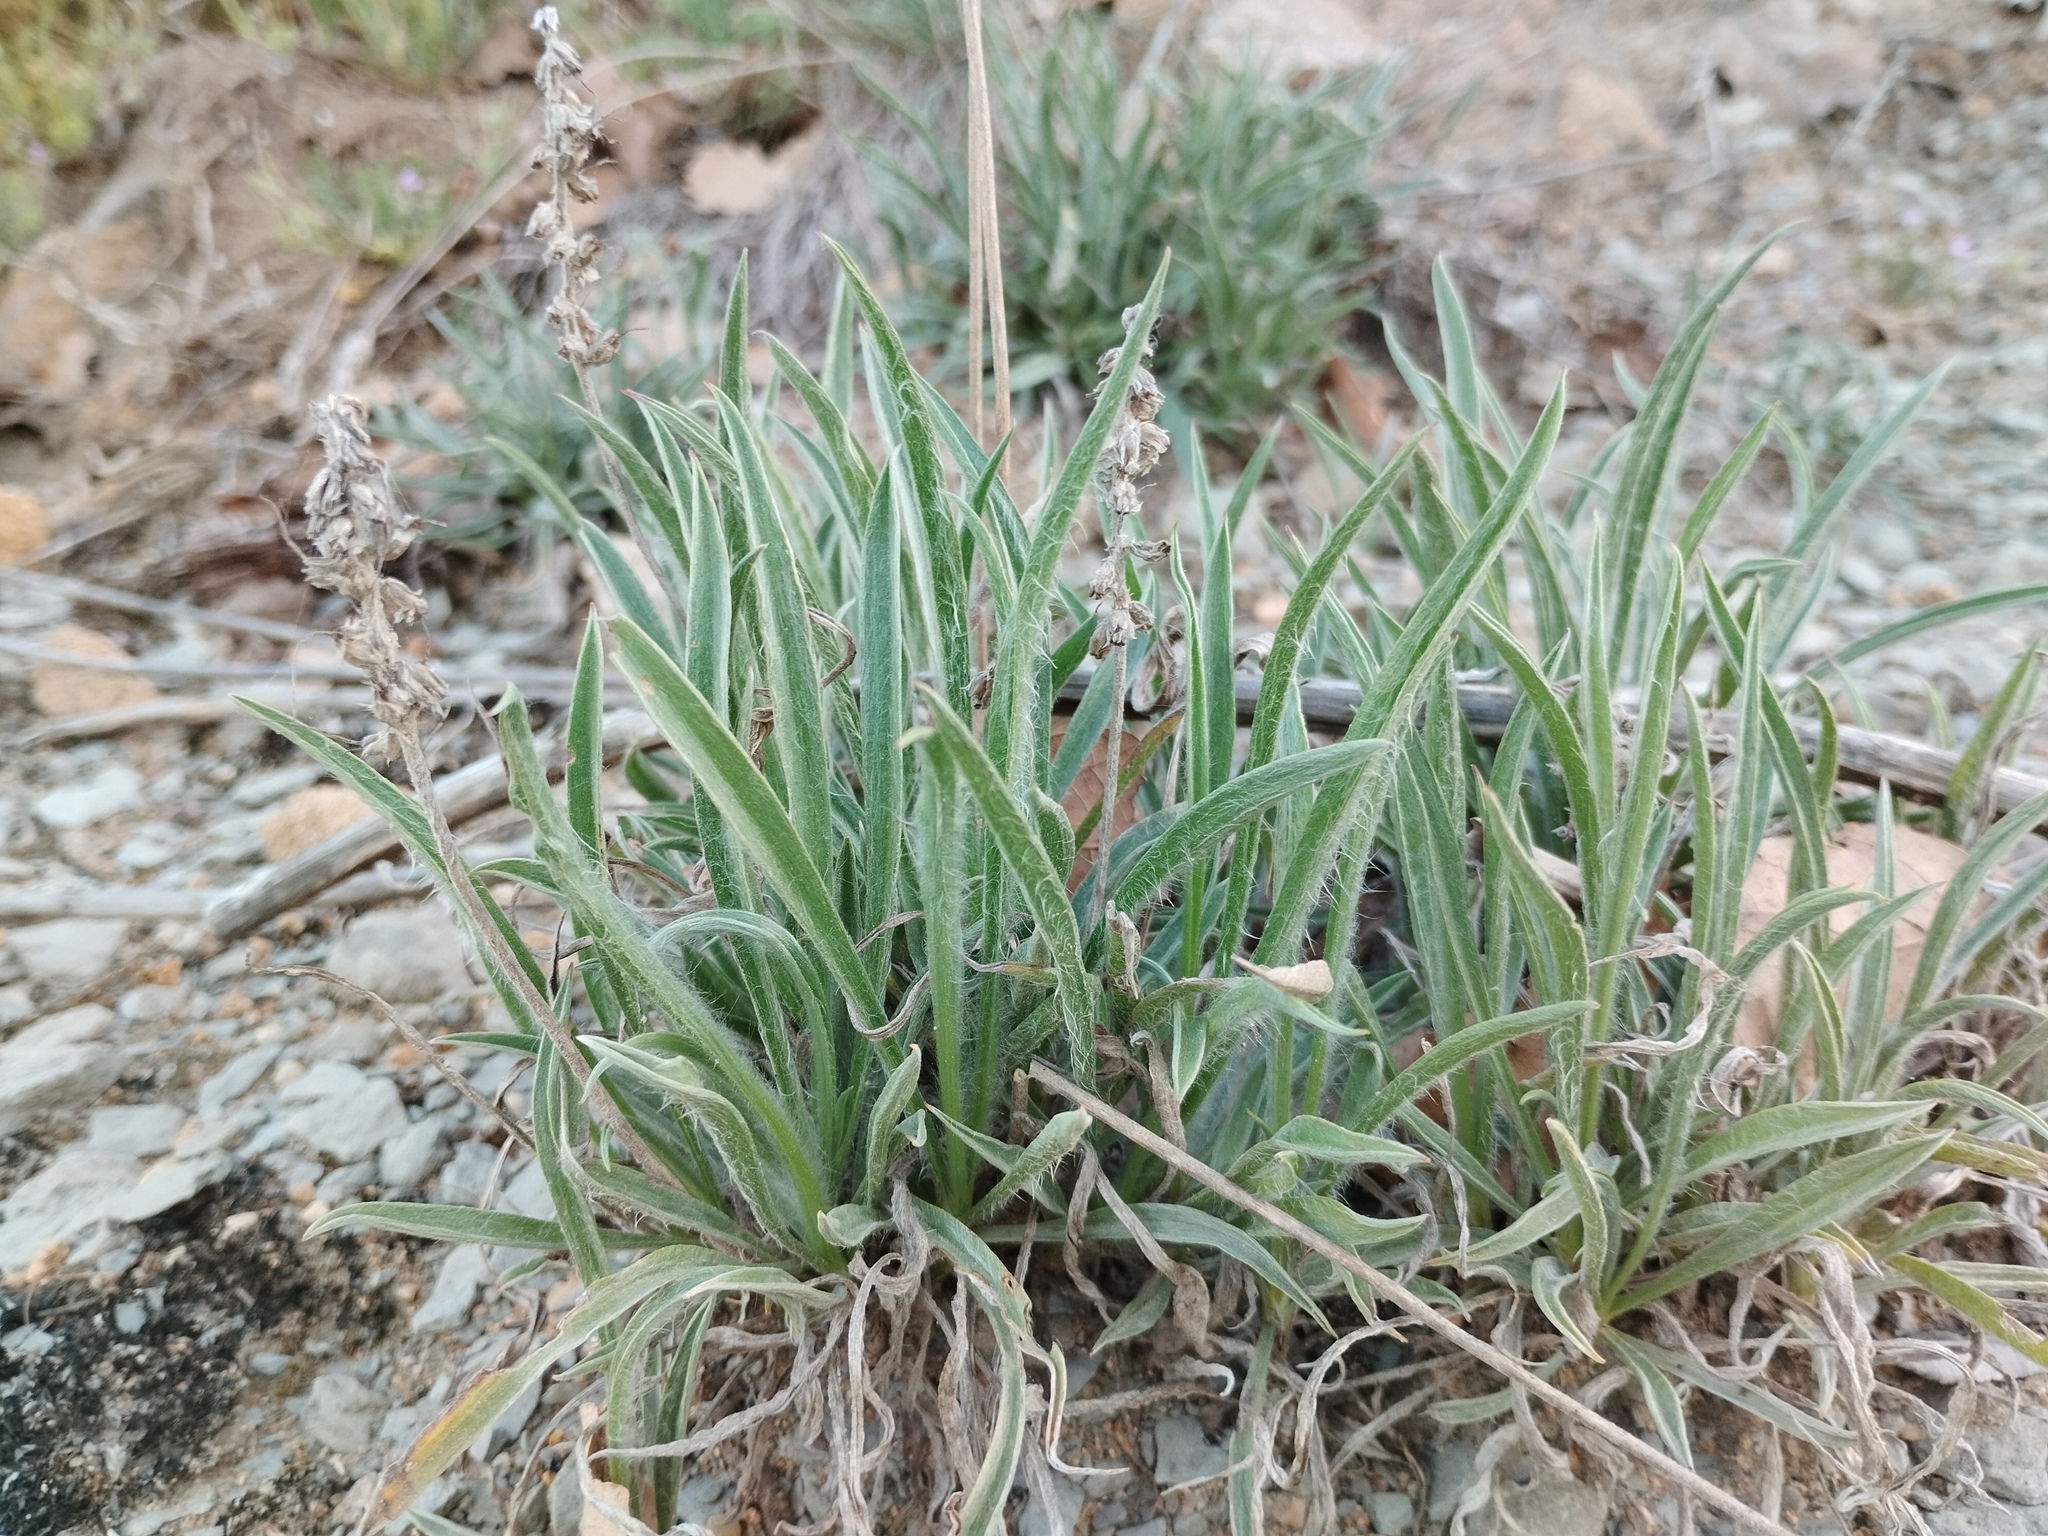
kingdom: Plantae
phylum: Tracheophyta
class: Magnoliopsida
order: Lamiales
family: Plantaginaceae
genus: Plantago
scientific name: Plantago albicans
